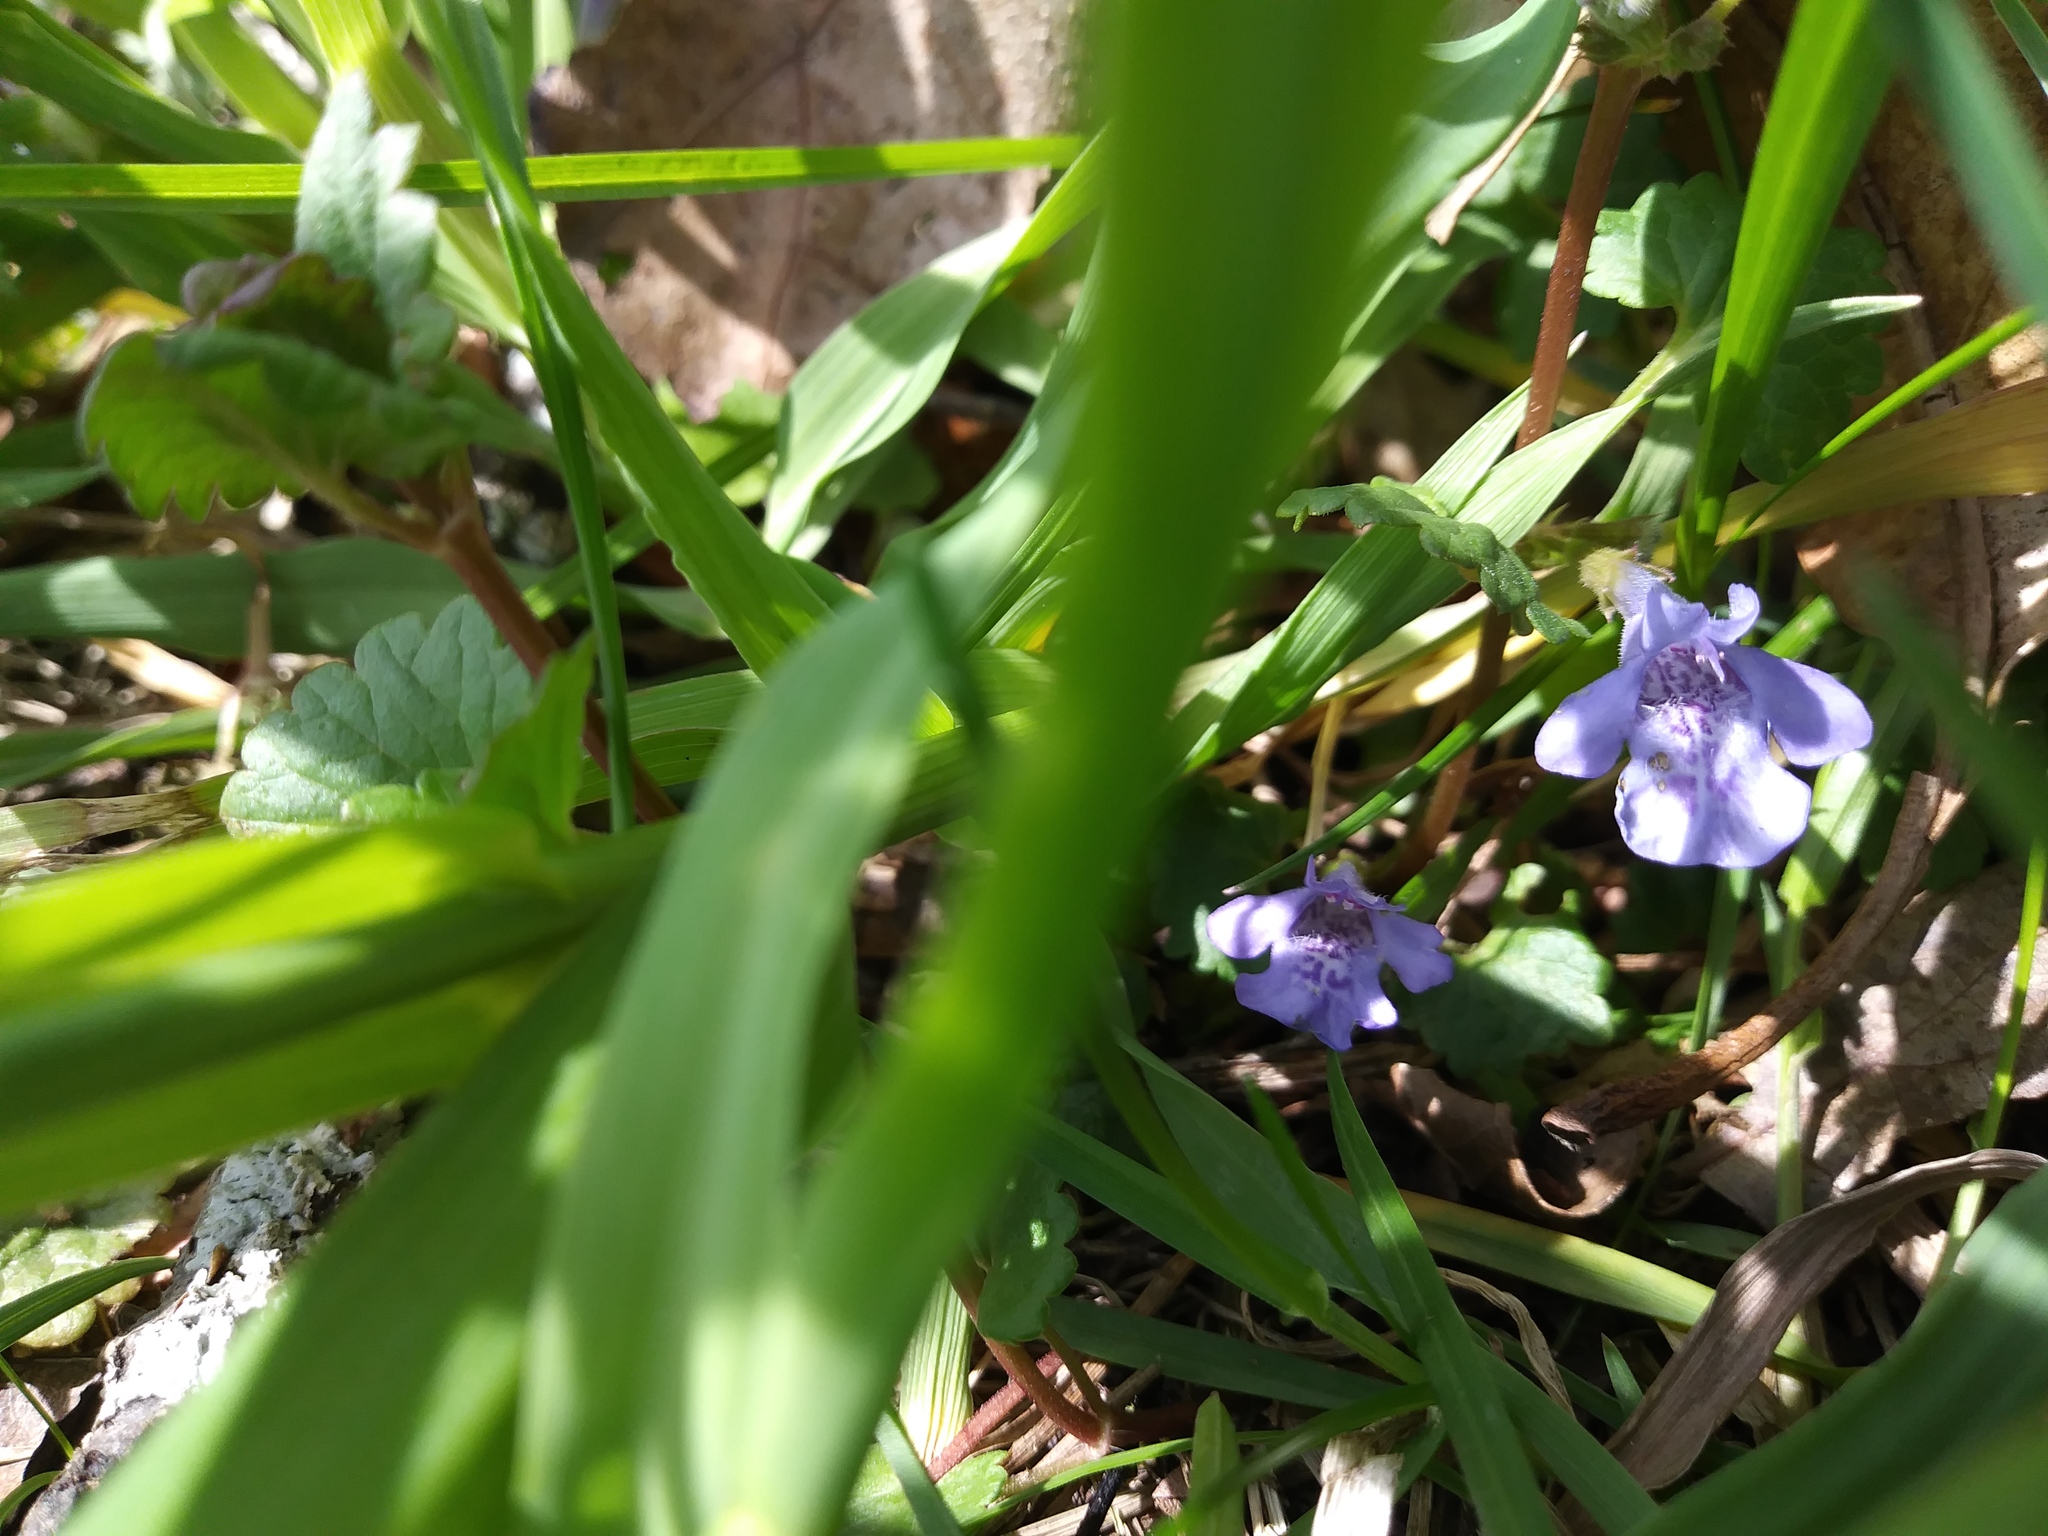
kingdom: Plantae
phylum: Tracheophyta
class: Magnoliopsida
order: Lamiales
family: Lamiaceae
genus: Glechoma
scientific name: Glechoma hederacea
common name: Ground ivy
